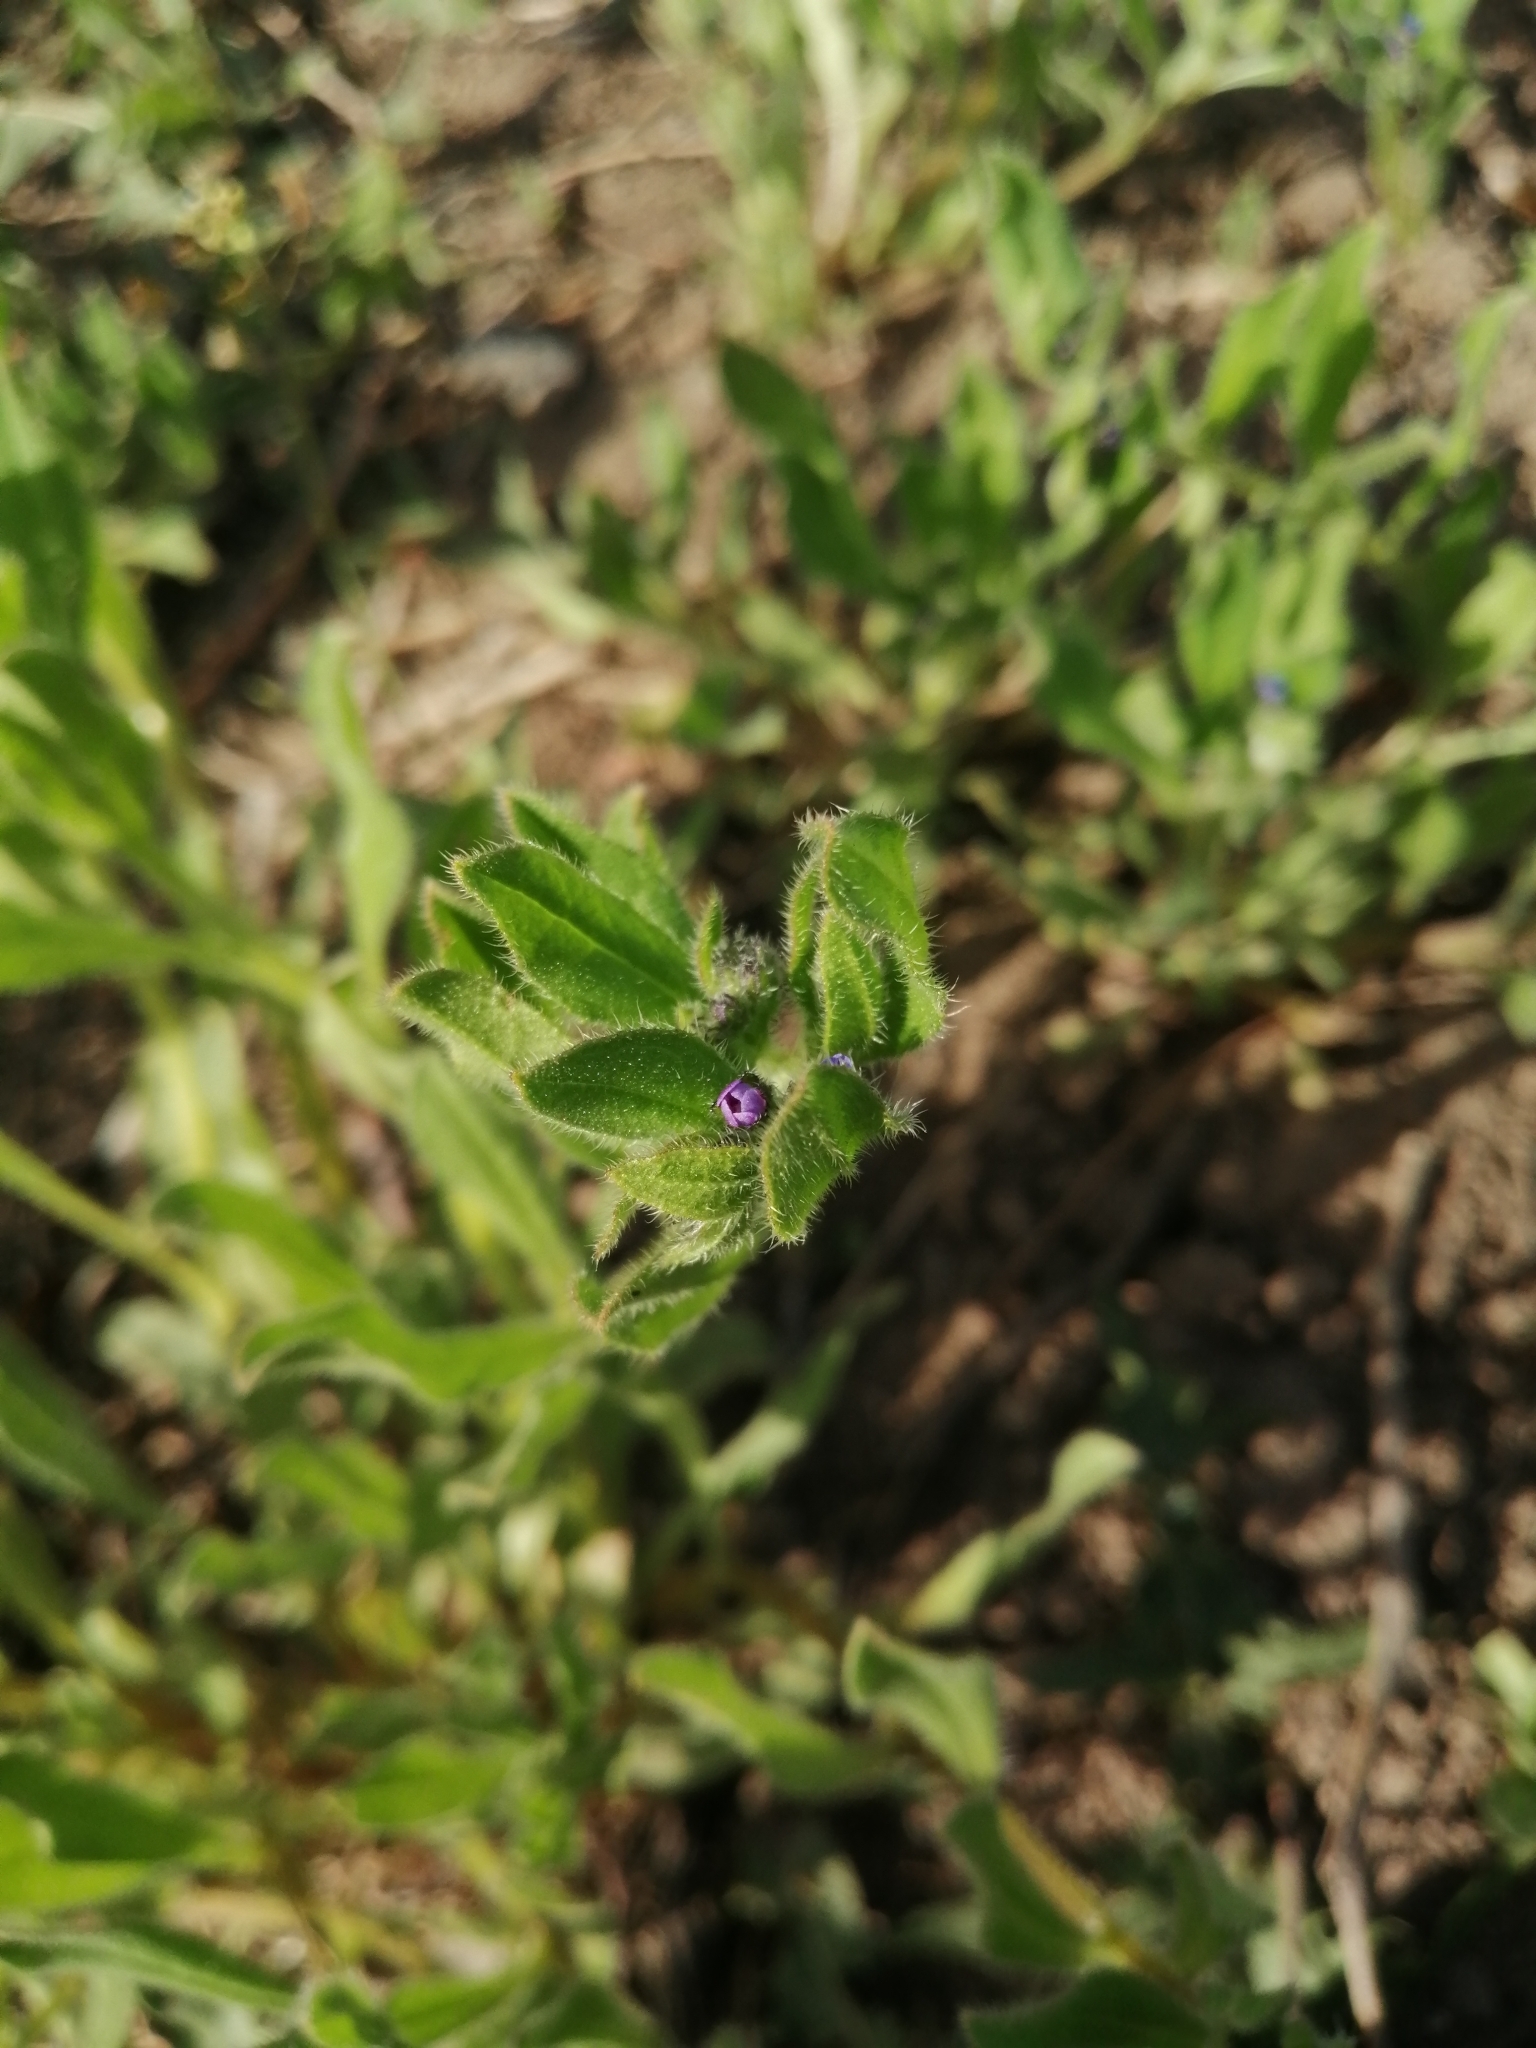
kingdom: Plantae
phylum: Tracheophyta
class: Magnoliopsida
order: Boraginales
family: Boraginaceae
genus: Asperugo
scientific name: Asperugo procumbens
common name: Madwort
